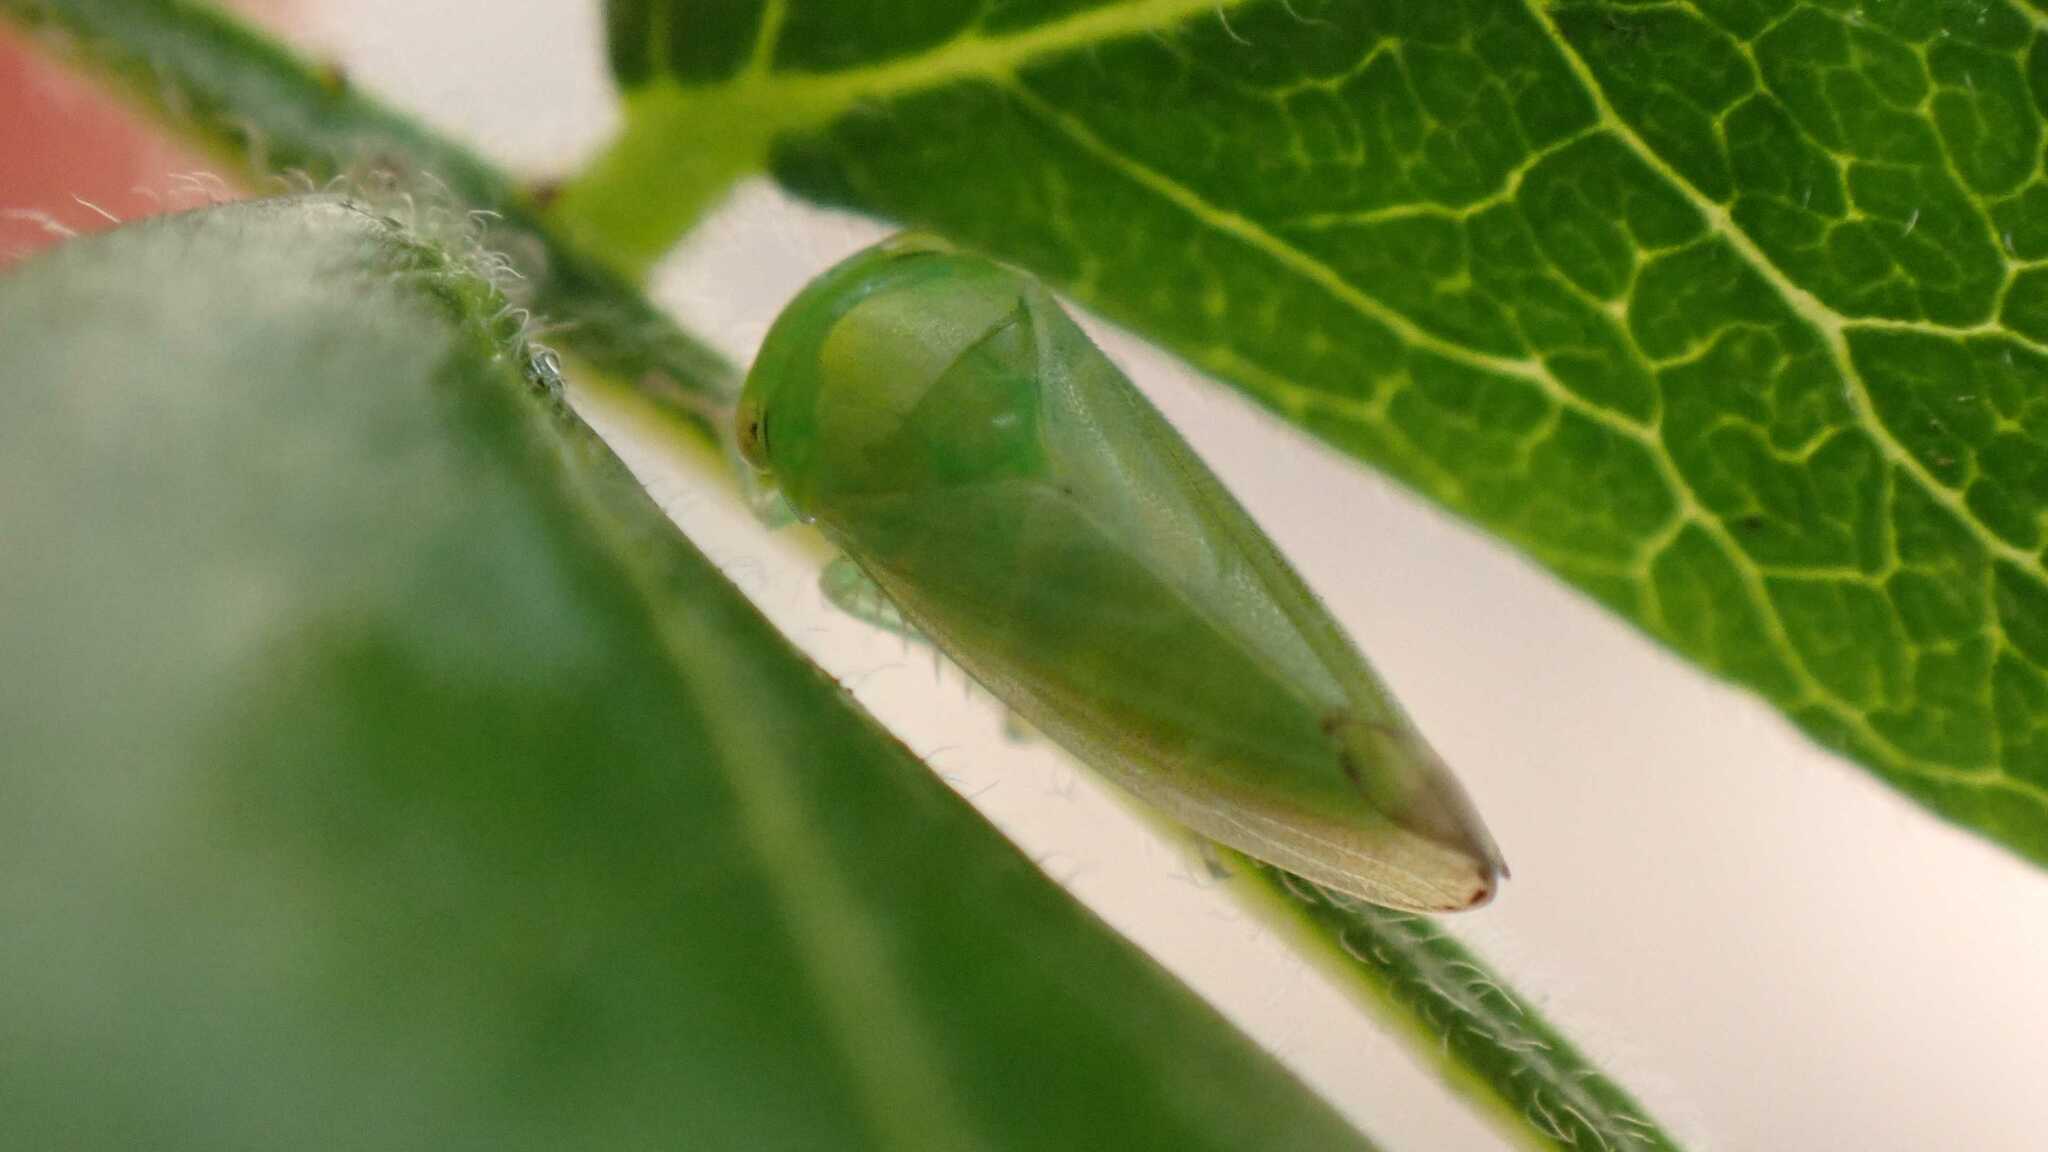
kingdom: Animalia
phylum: Arthropoda
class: Insecta
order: Hemiptera
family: Cicadellidae
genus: Stragania
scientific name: Stragania apicalis
